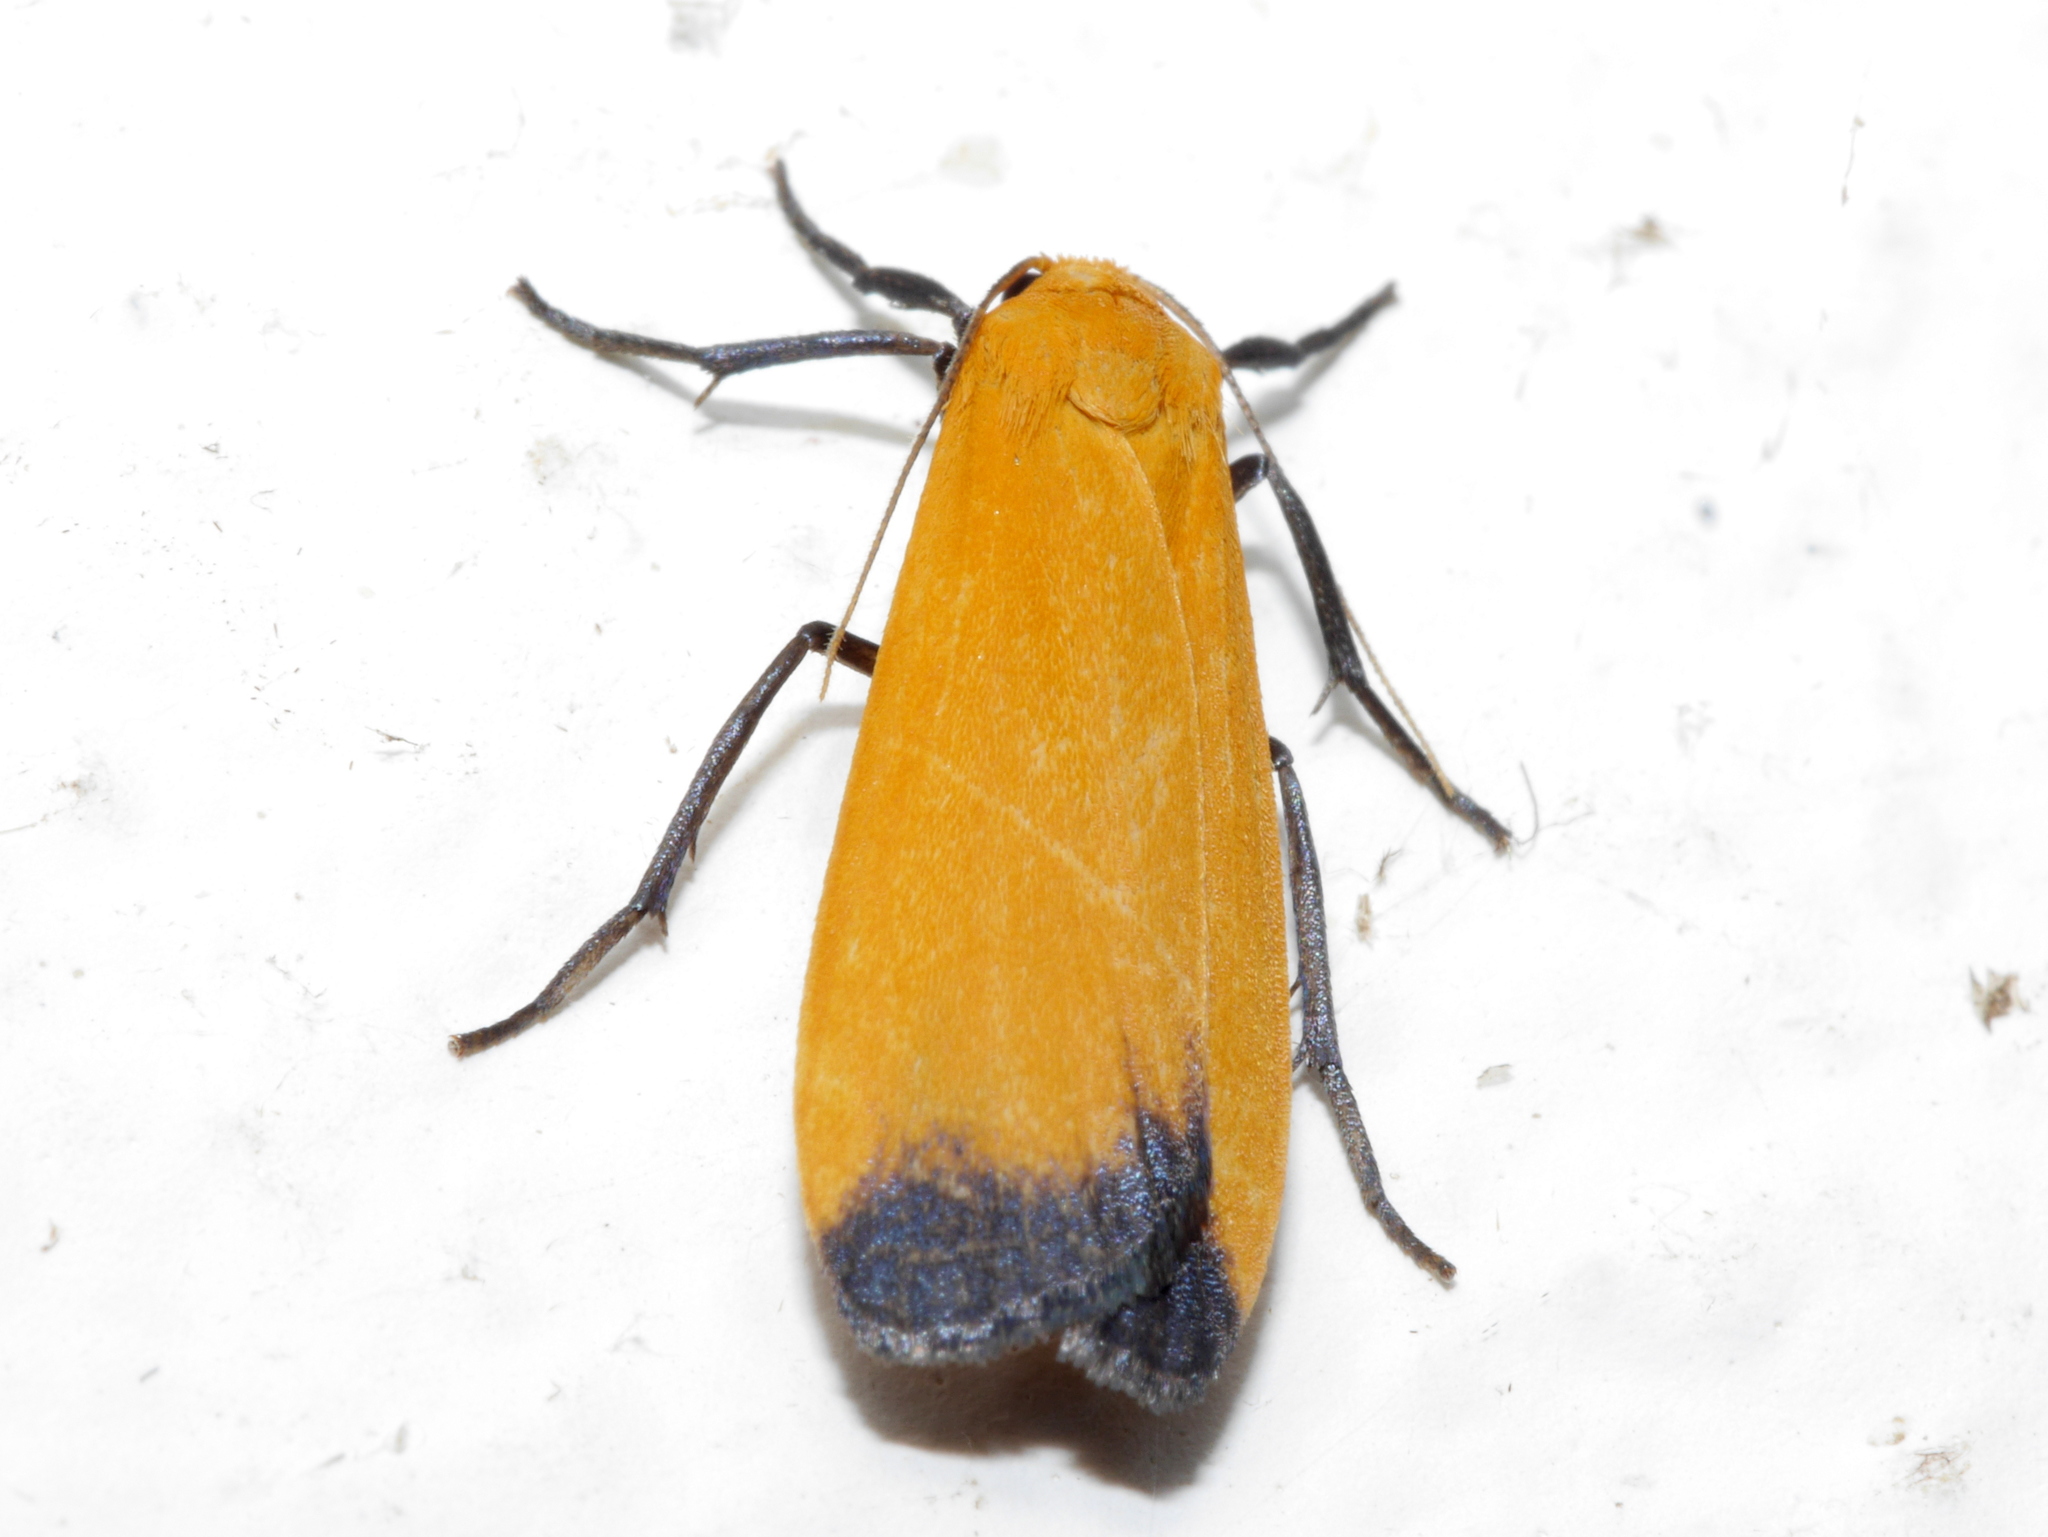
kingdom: Animalia
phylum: Arthropoda
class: Insecta
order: Lepidoptera
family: Erebidae
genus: Muxta
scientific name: Muxta xanthopa
